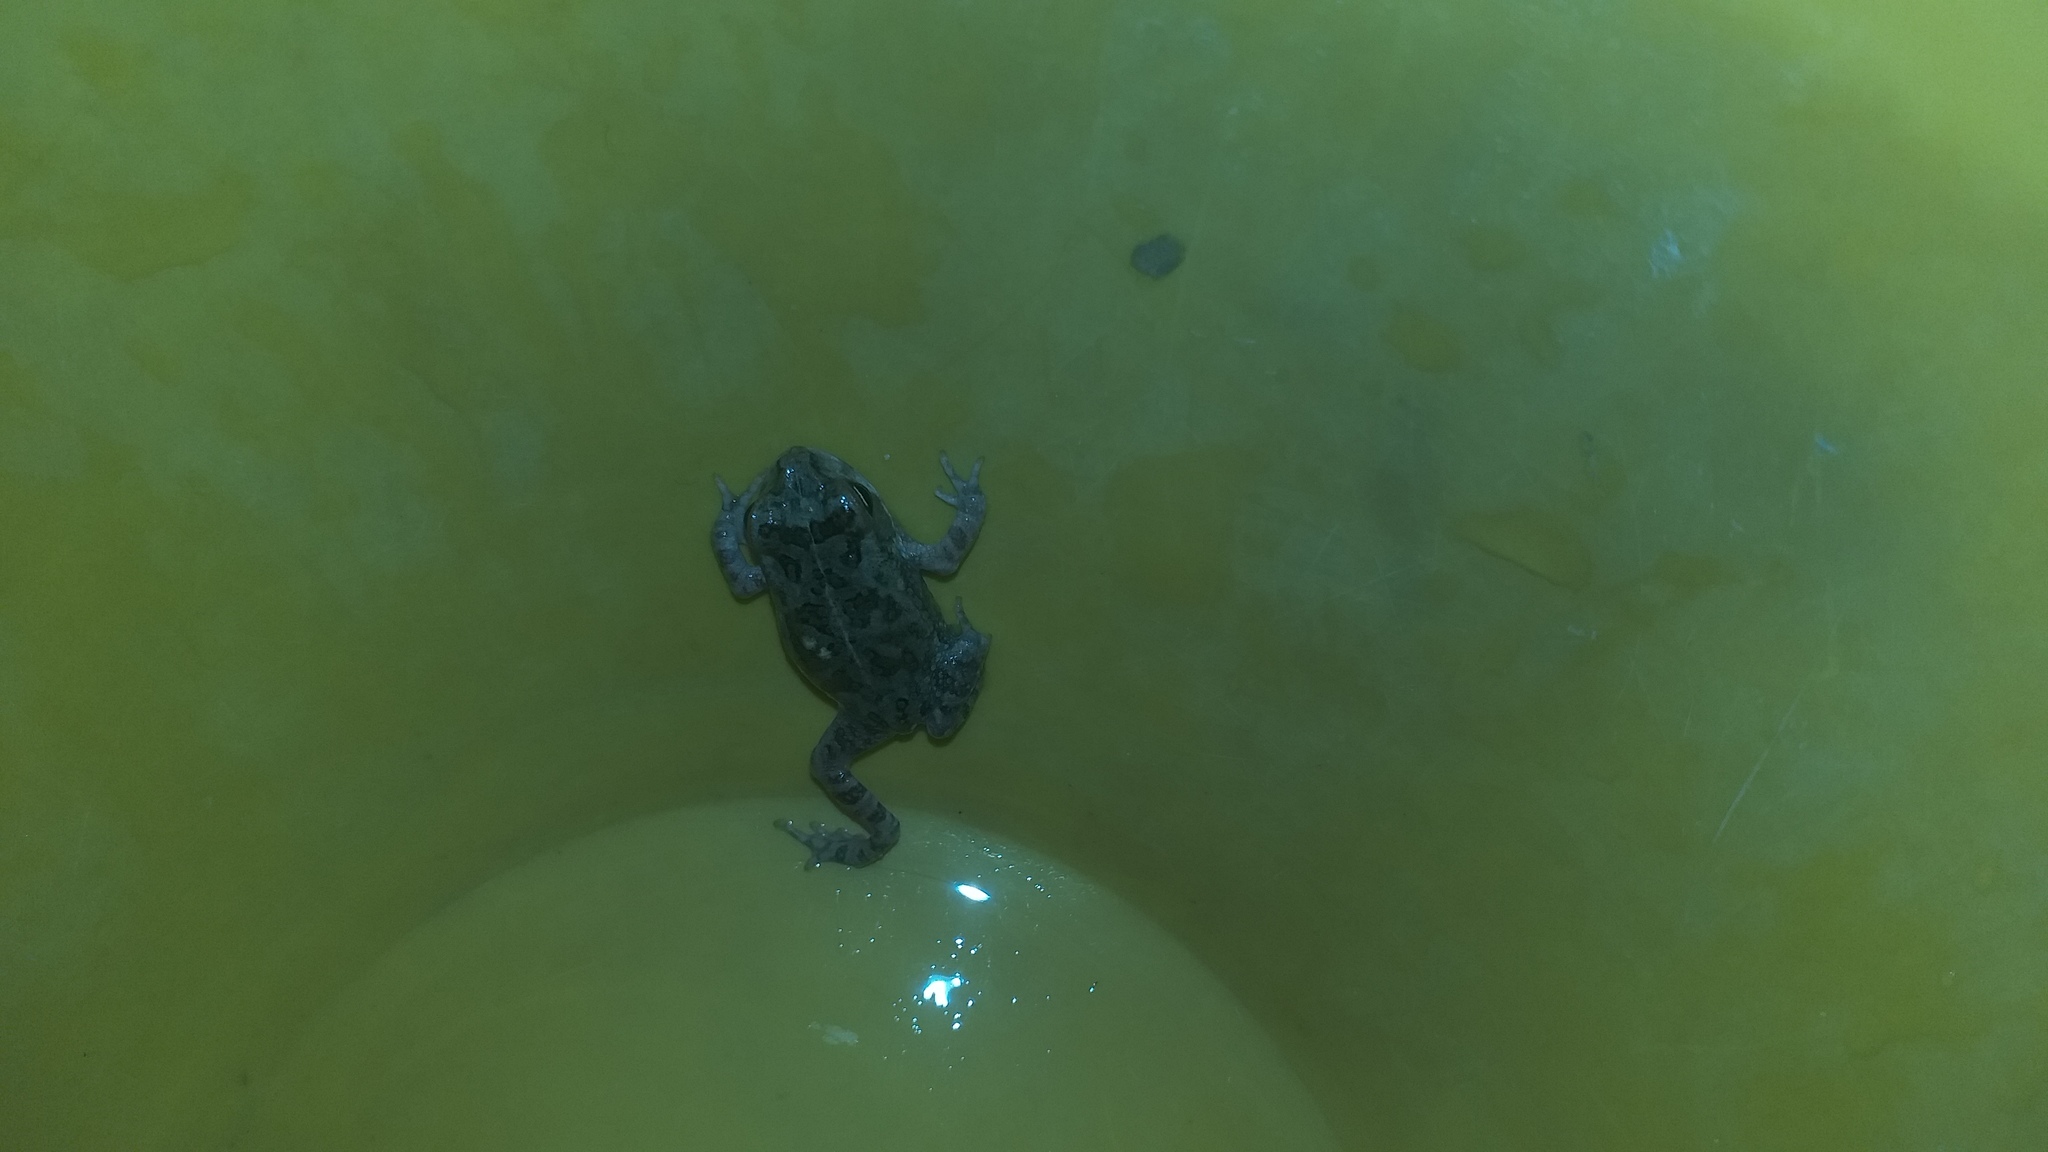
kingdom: Animalia
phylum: Chordata
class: Amphibia
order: Anura
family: Bufonidae
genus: Rhinella
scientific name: Rhinella marina
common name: Cane toad
